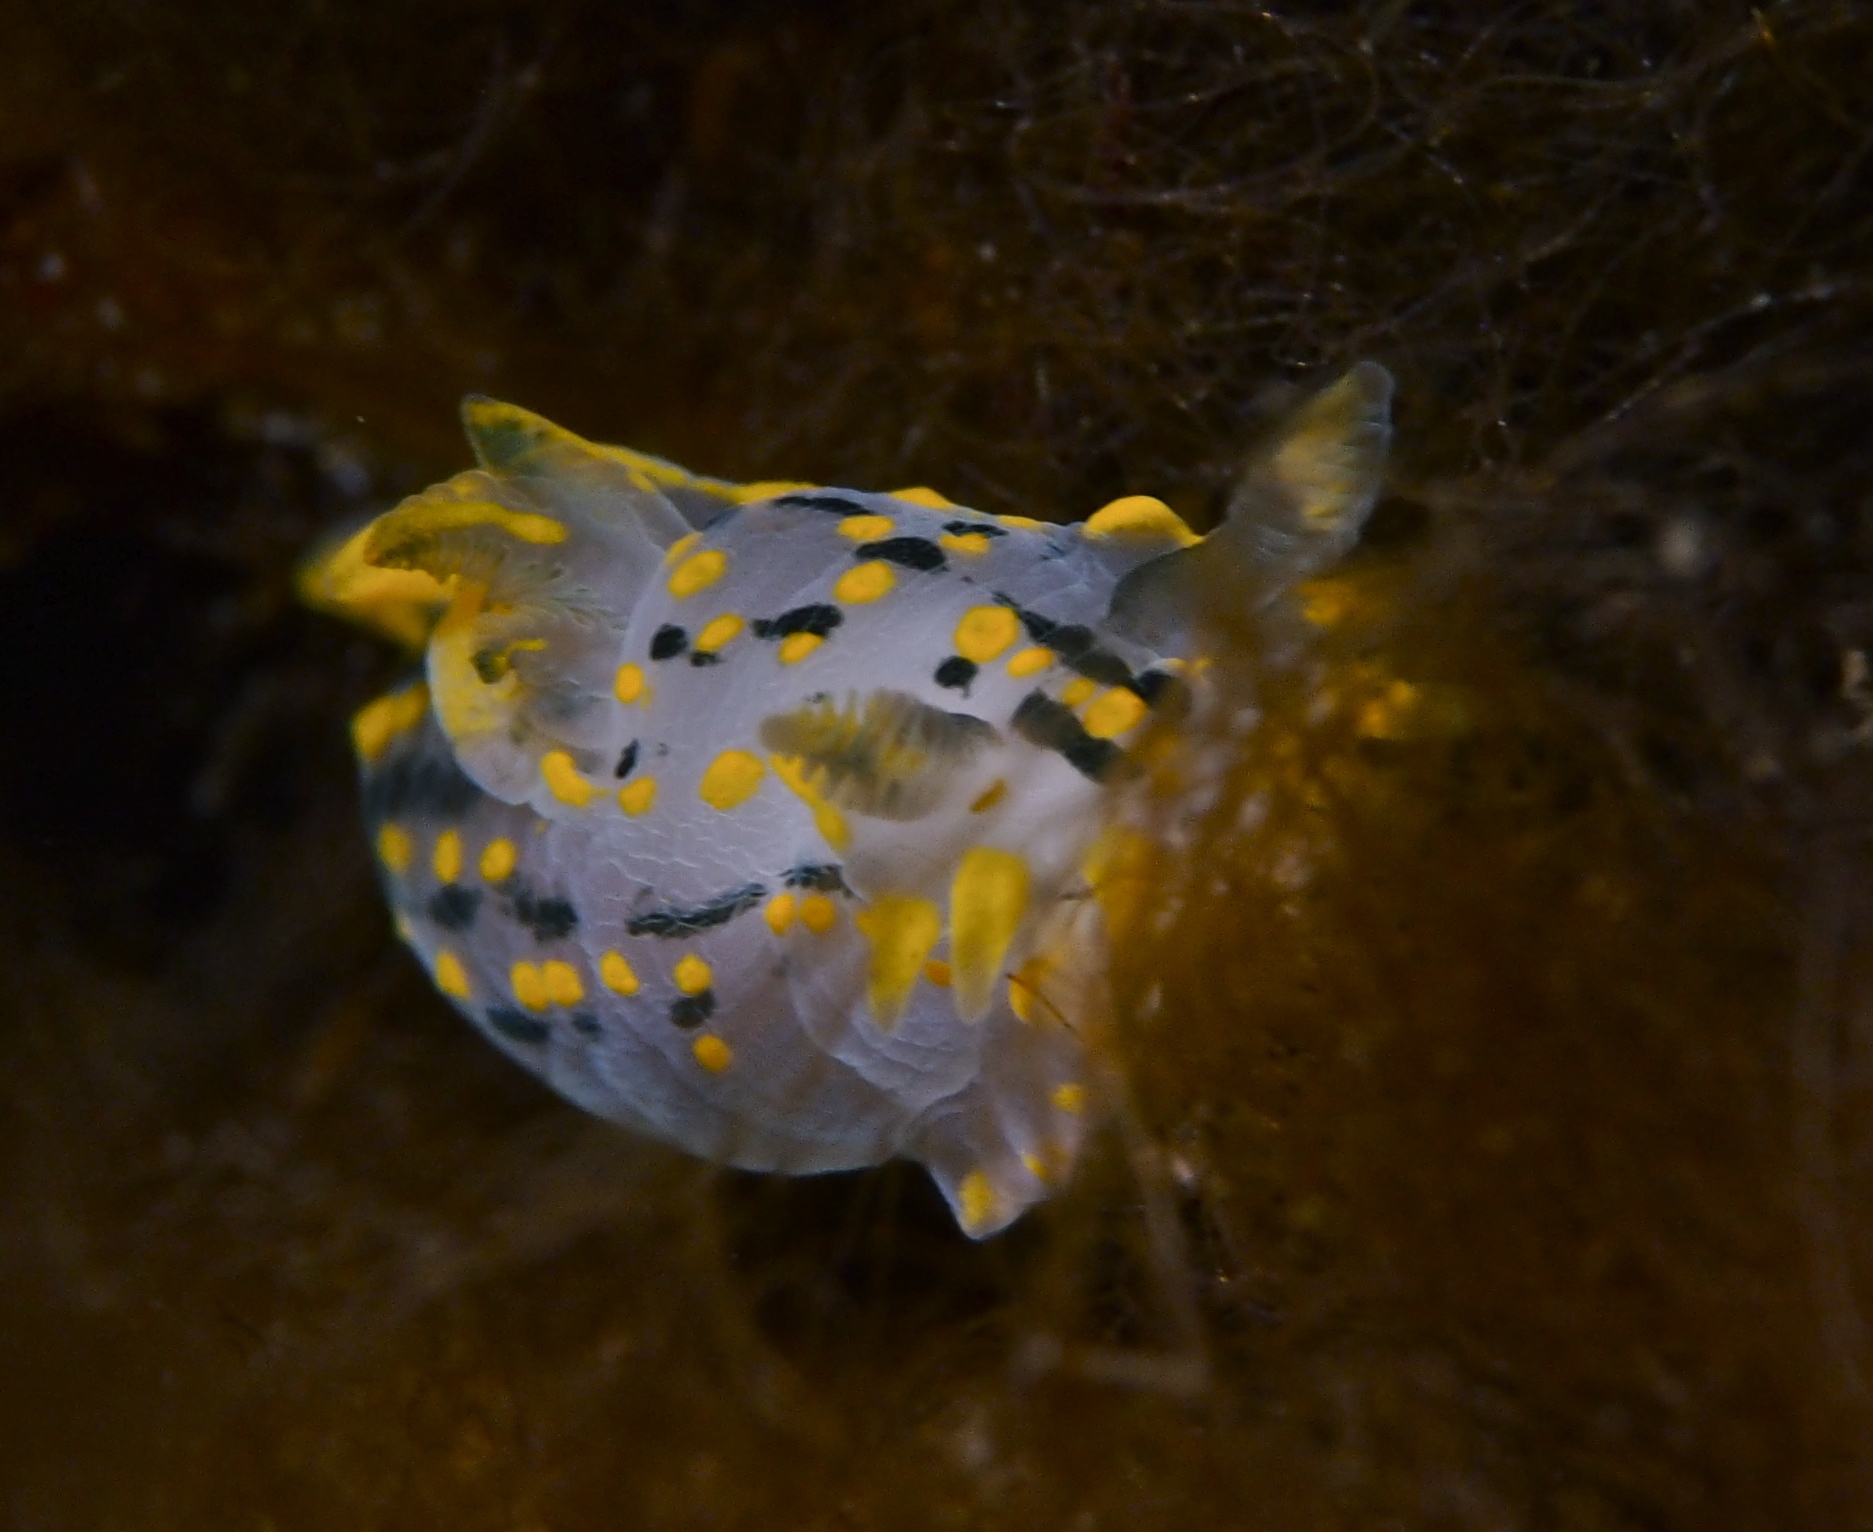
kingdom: Animalia
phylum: Mollusca
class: Gastropoda
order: Nudibranchia
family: Polyceridae
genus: Polycera
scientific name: Polycera quadrilineata
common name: Four-striped polycera
